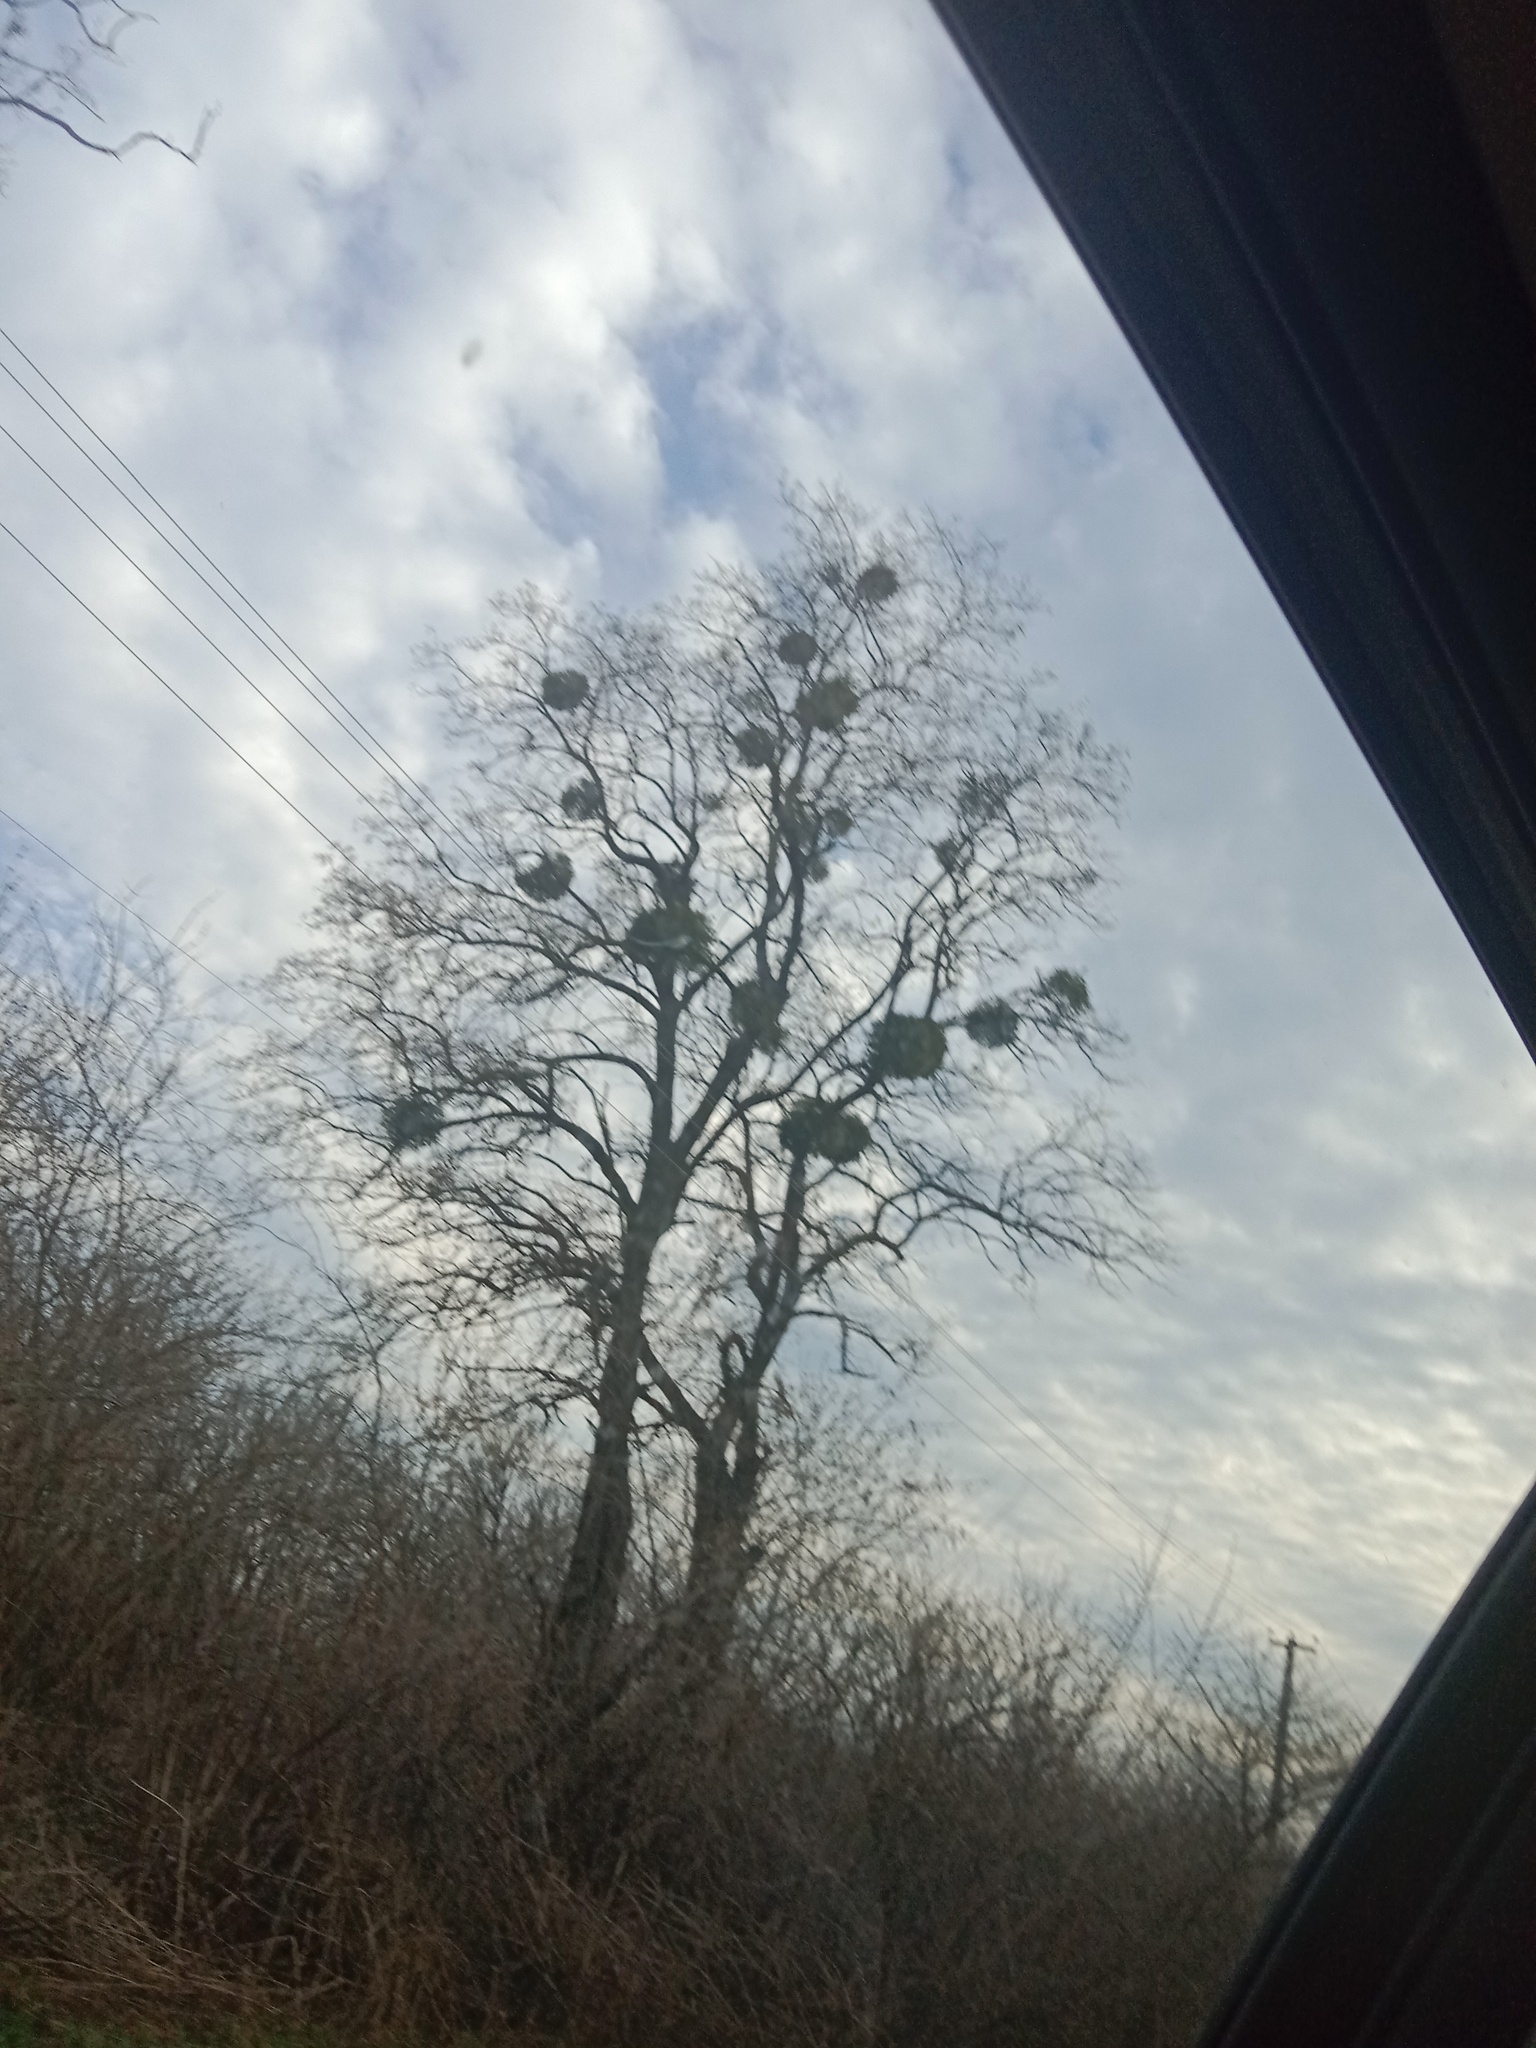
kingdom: Plantae
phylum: Tracheophyta
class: Magnoliopsida
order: Santalales
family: Viscaceae
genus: Viscum
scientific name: Viscum album
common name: Mistletoe
